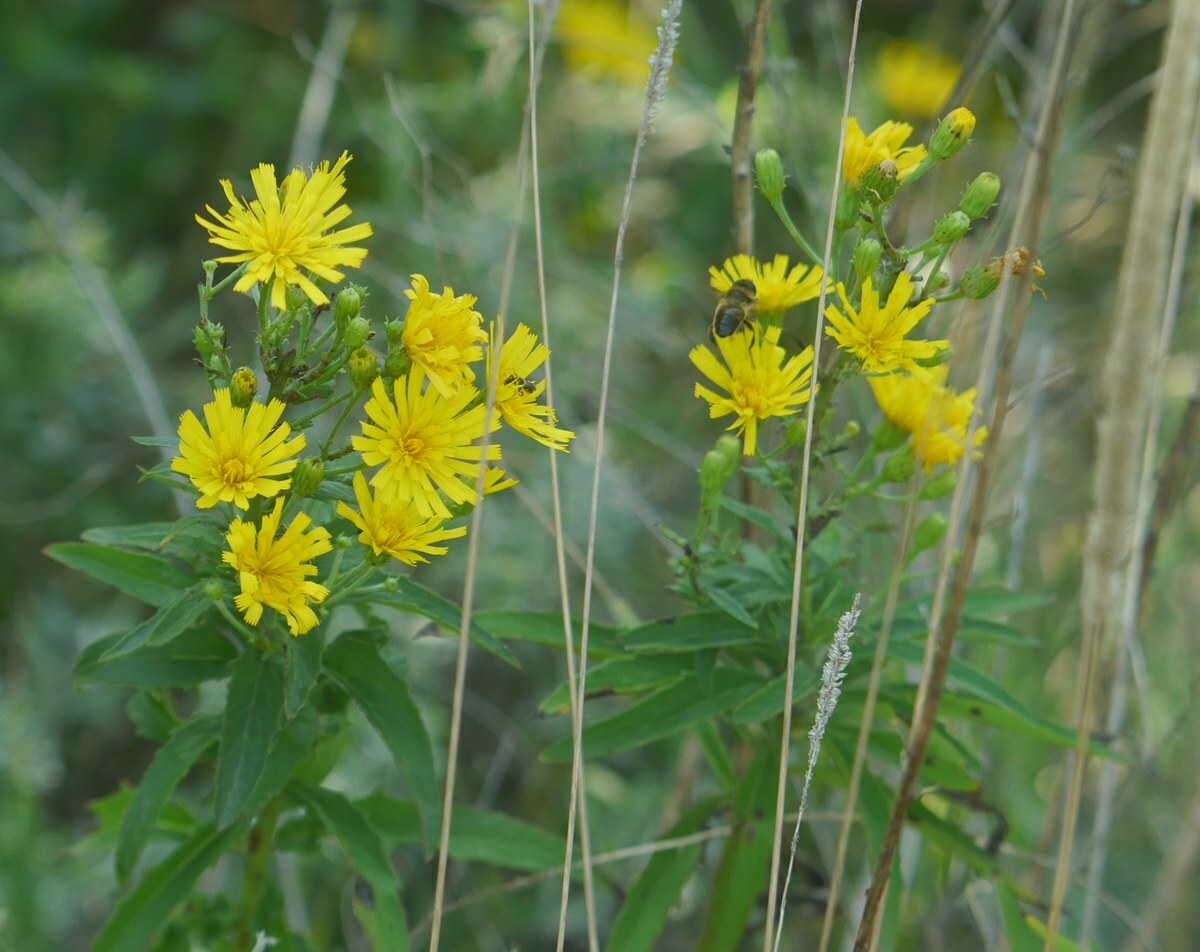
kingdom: Plantae
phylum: Tracheophyta
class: Magnoliopsida
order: Asterales
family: Asteraceae
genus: Hieracium
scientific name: Hieracium umbellatum
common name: Northern hawkweed
